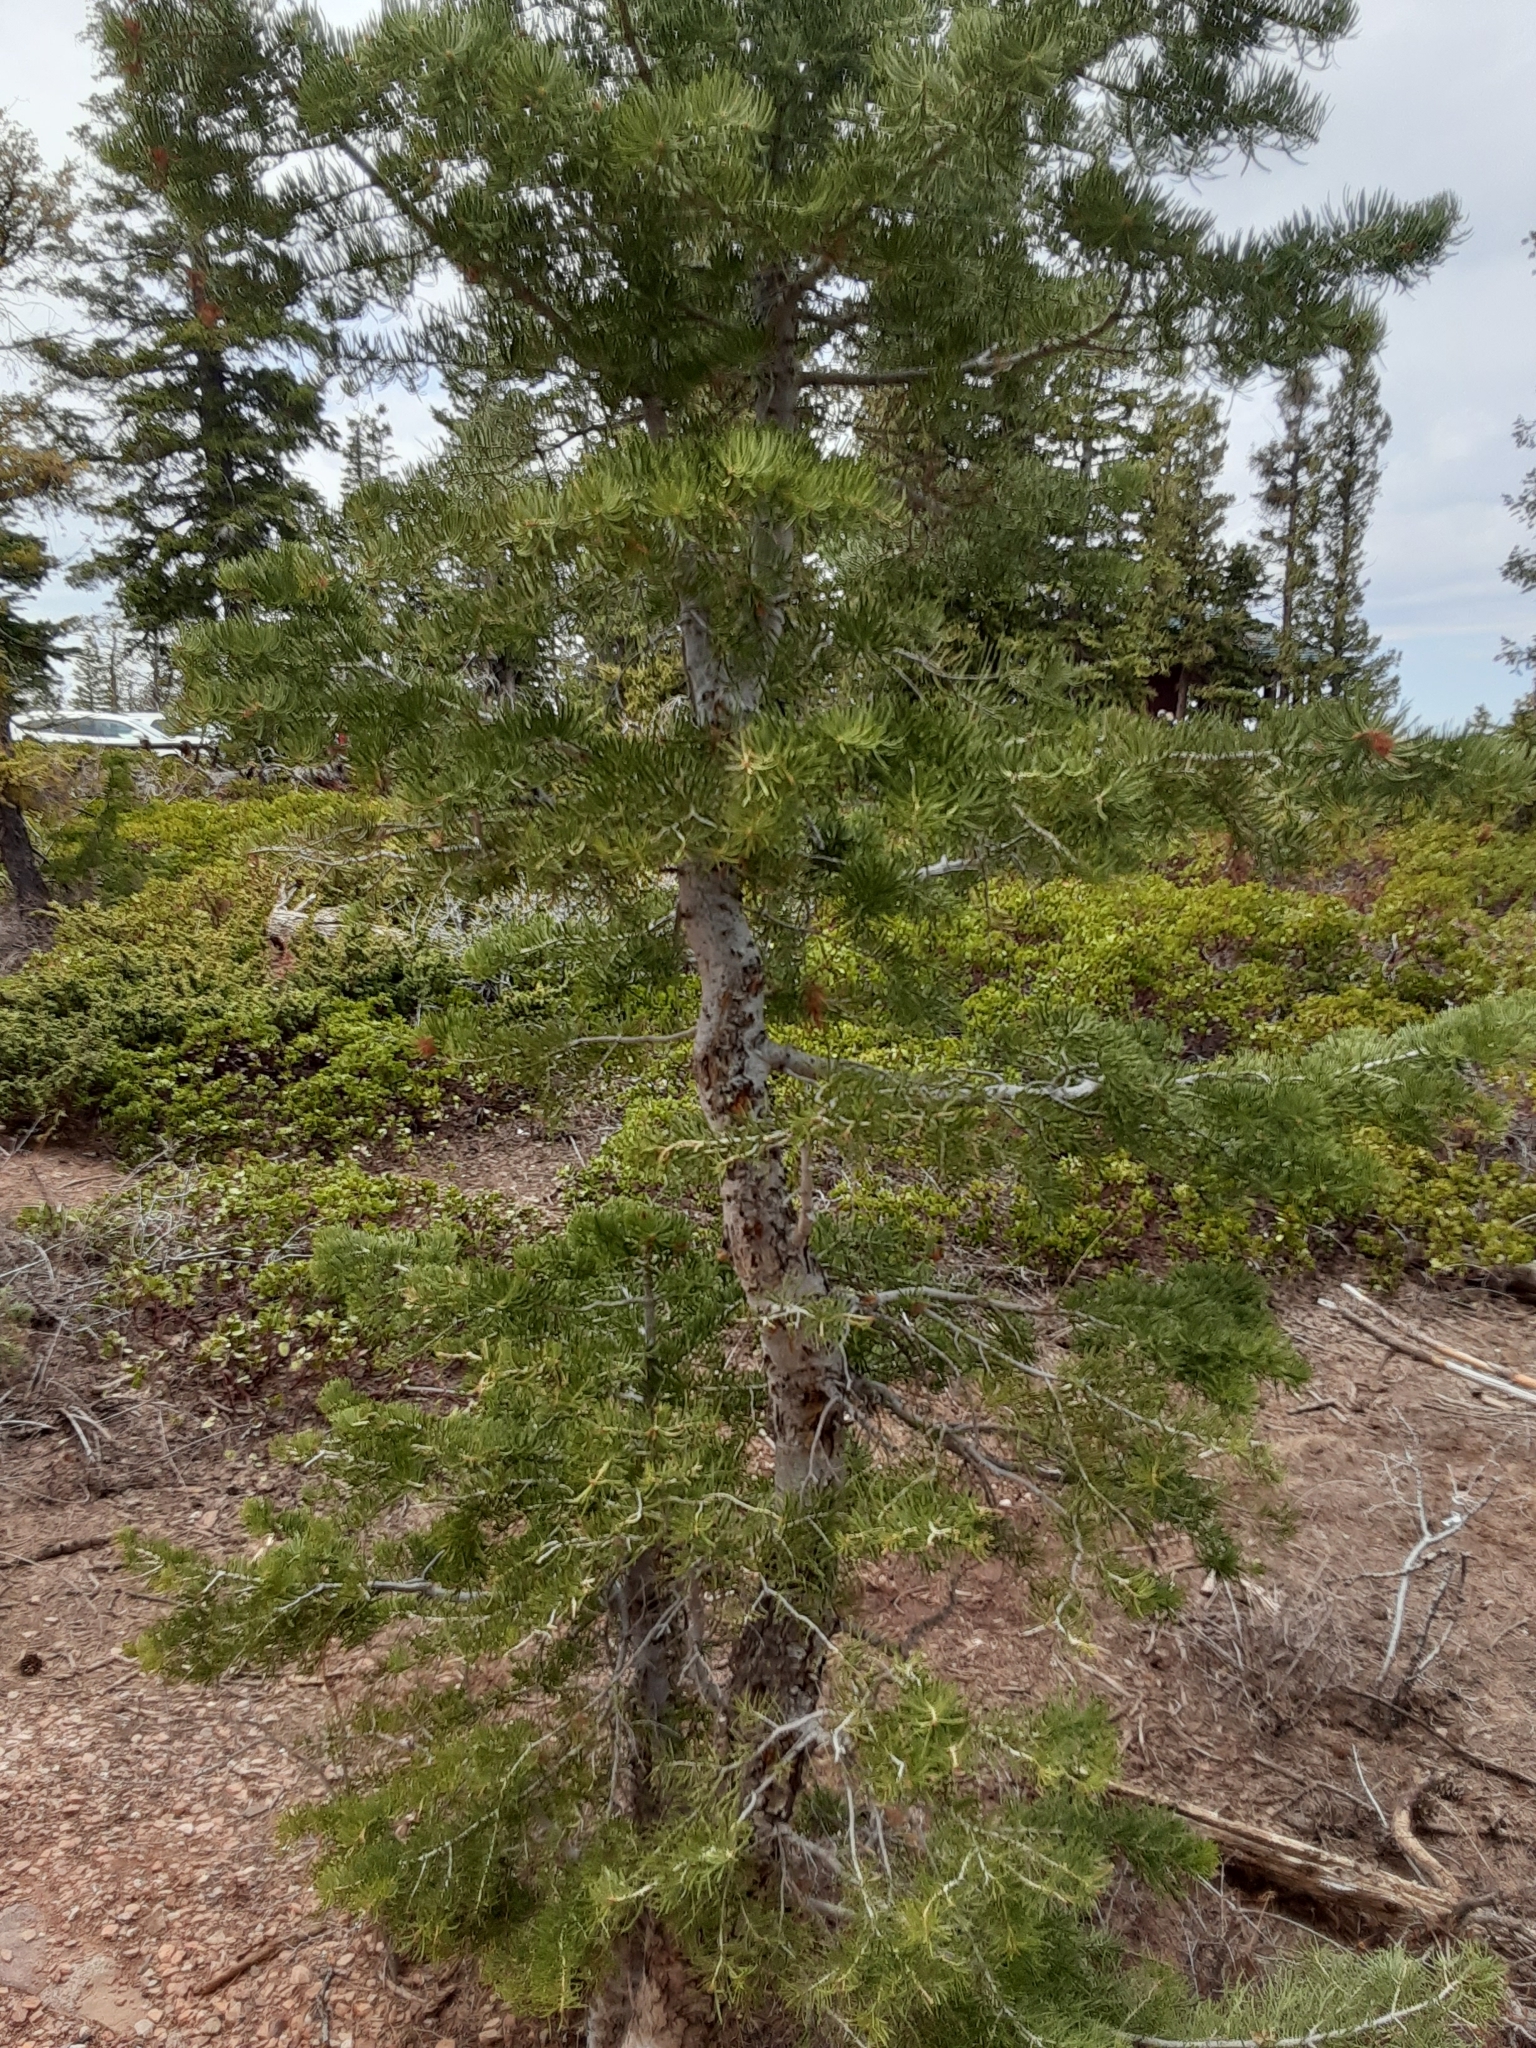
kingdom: Plantae
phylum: Tracheophyta
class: Pinopsida
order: Pinales
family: Pinaceae
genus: Abies
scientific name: Abies concolor
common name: Colorado fir
